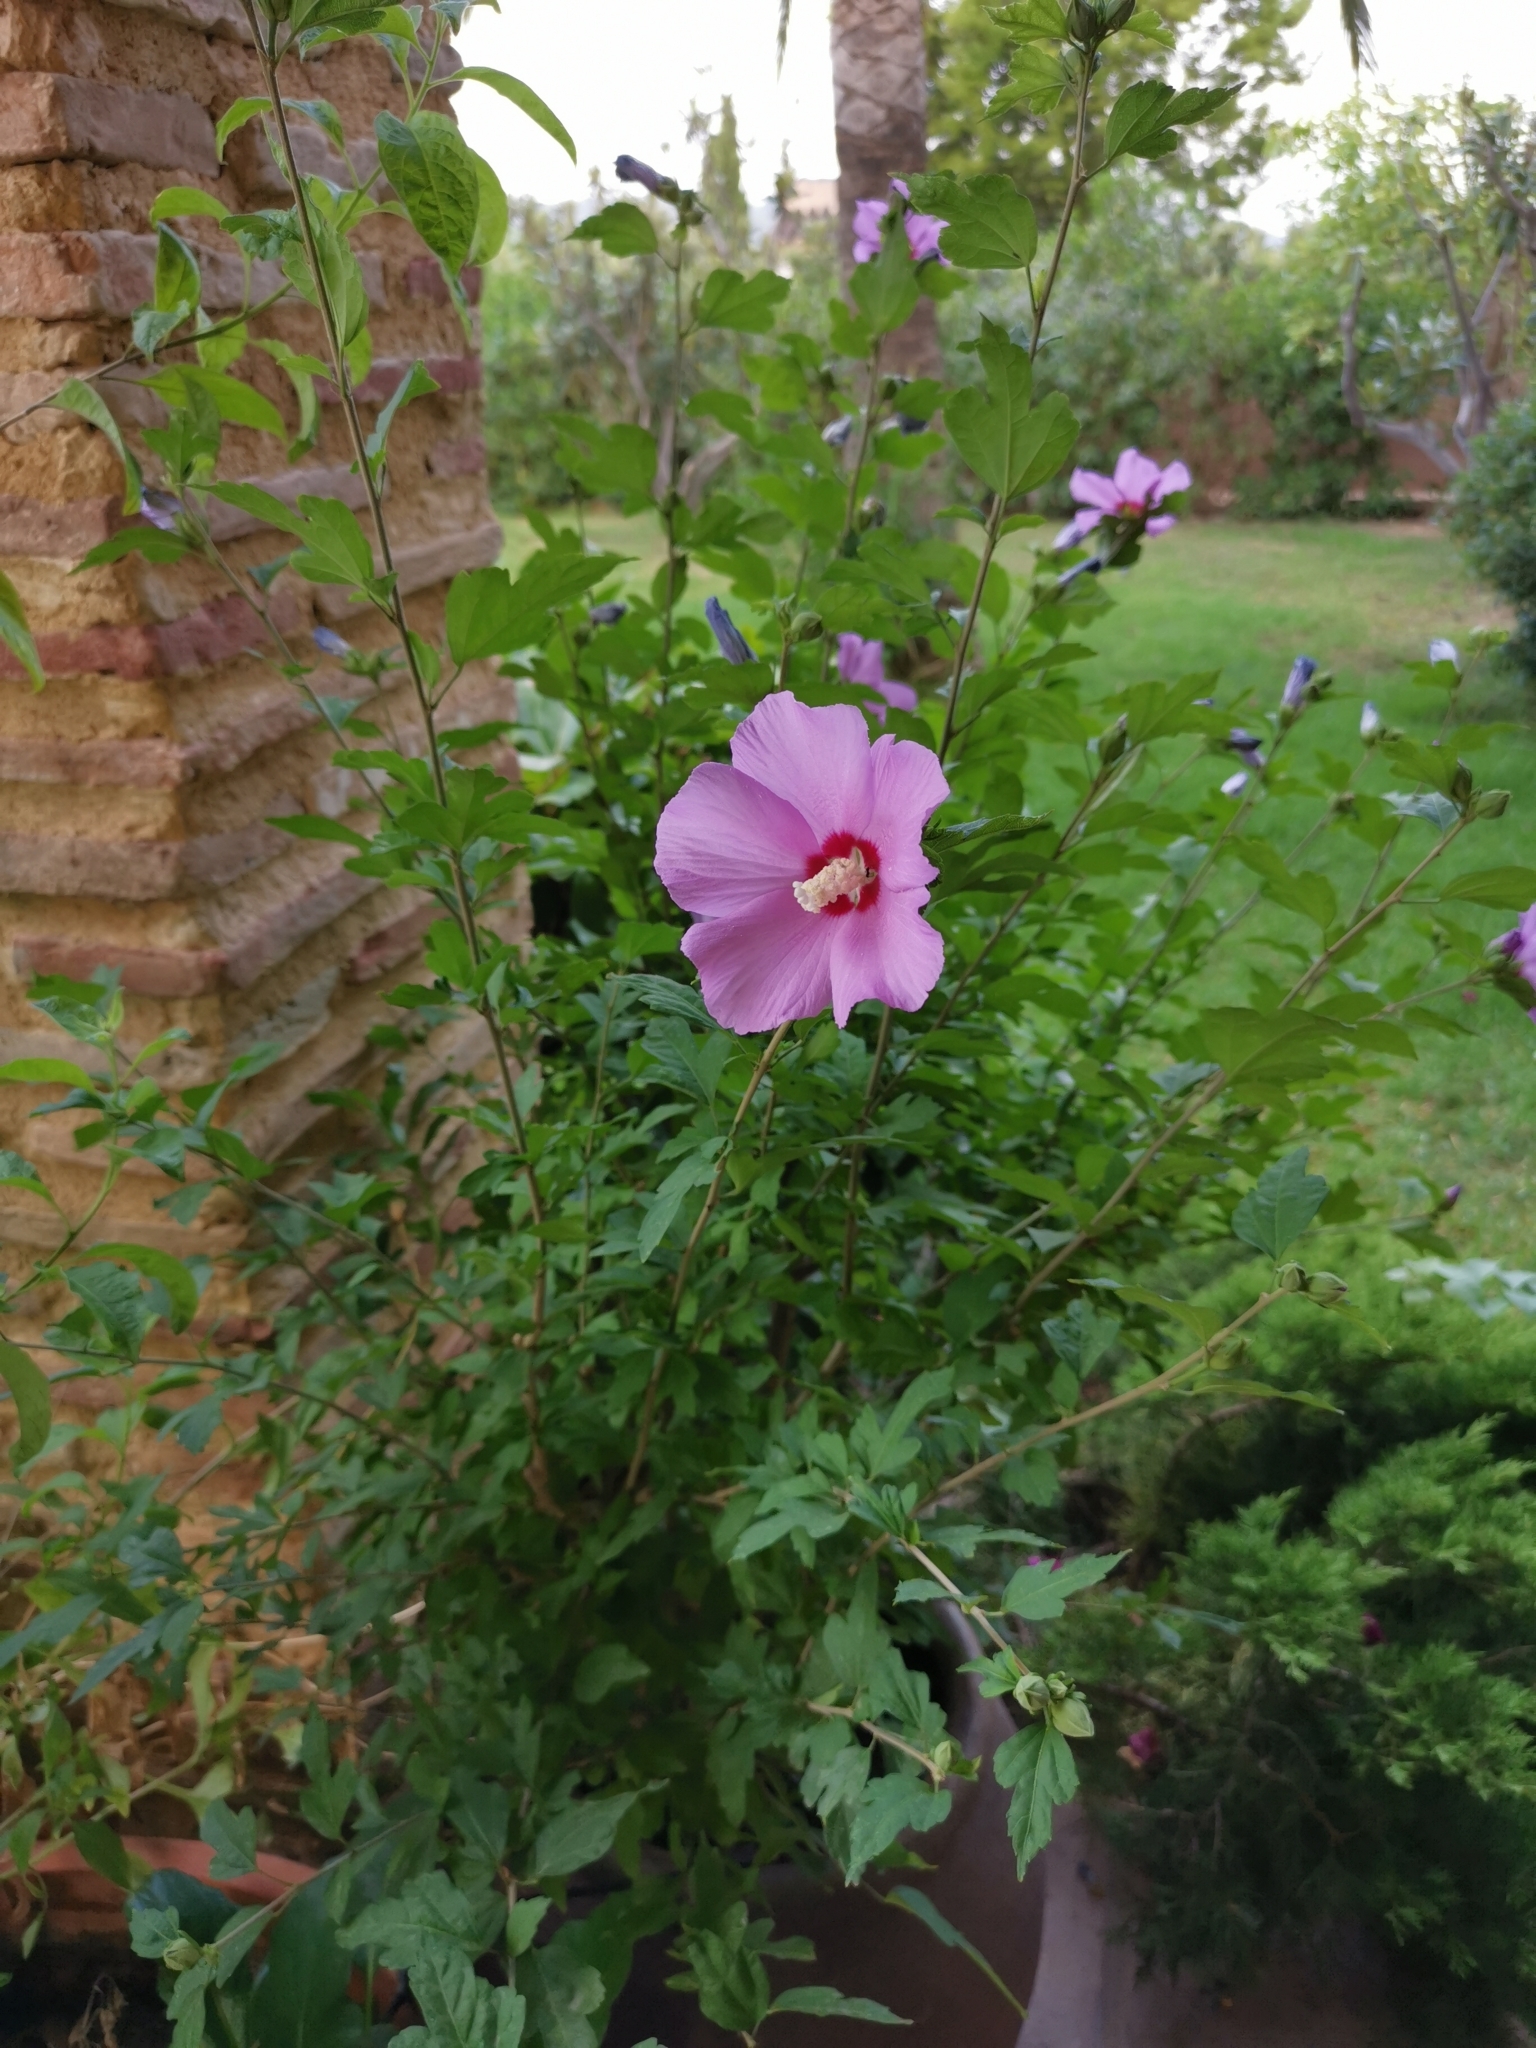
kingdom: Plantae
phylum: Tracheophyta
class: Magnoliopsida
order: Malvales
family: Malvaceae
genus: Hibiscus
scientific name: Hibiscus syriacus
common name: Syrian ketmia
